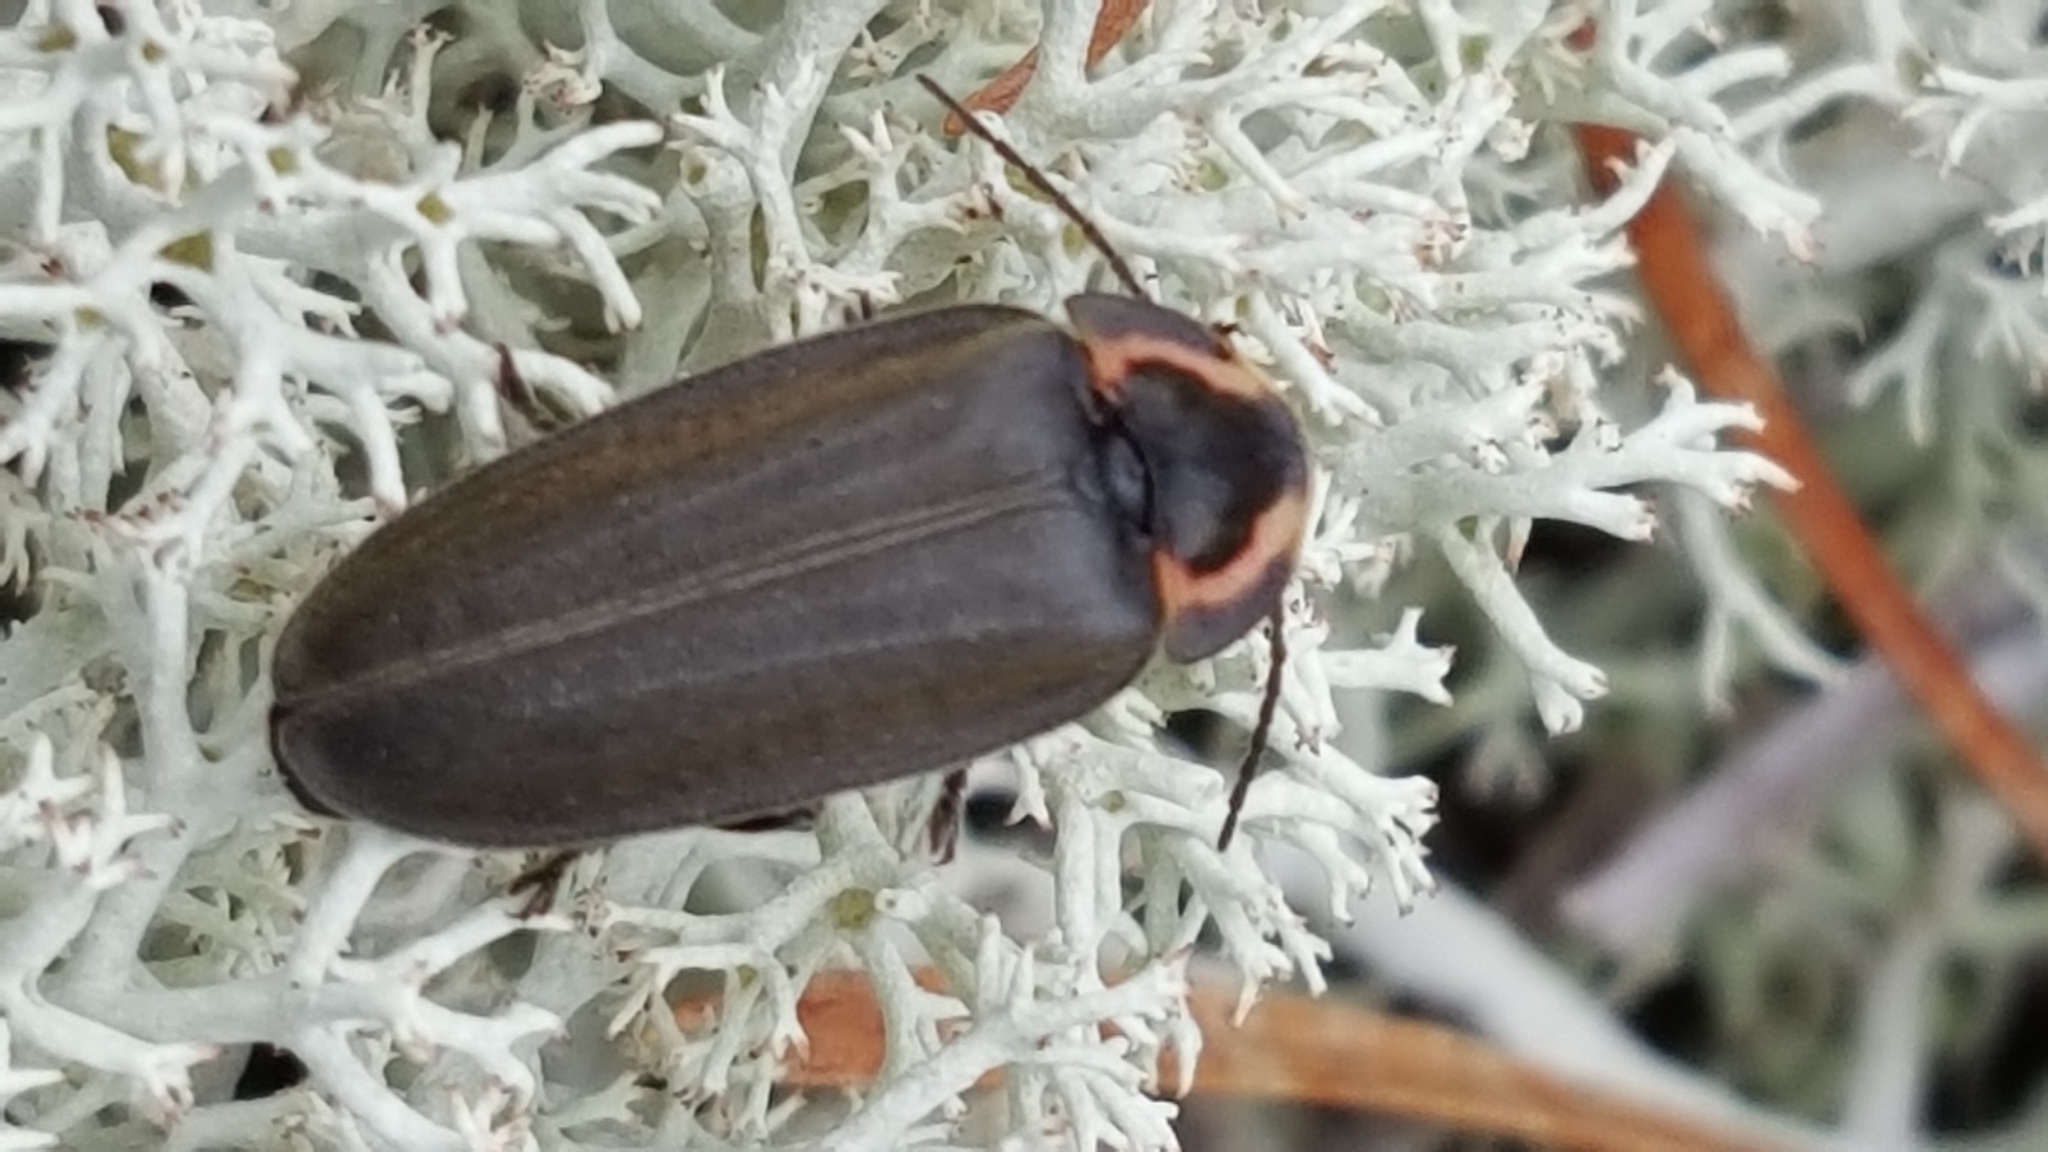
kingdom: Animalia
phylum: Arthropoda
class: Insecta
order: Coleoptera
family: Lampyridae
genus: Photinus
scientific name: Photinus corrusca
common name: Winter firefly
